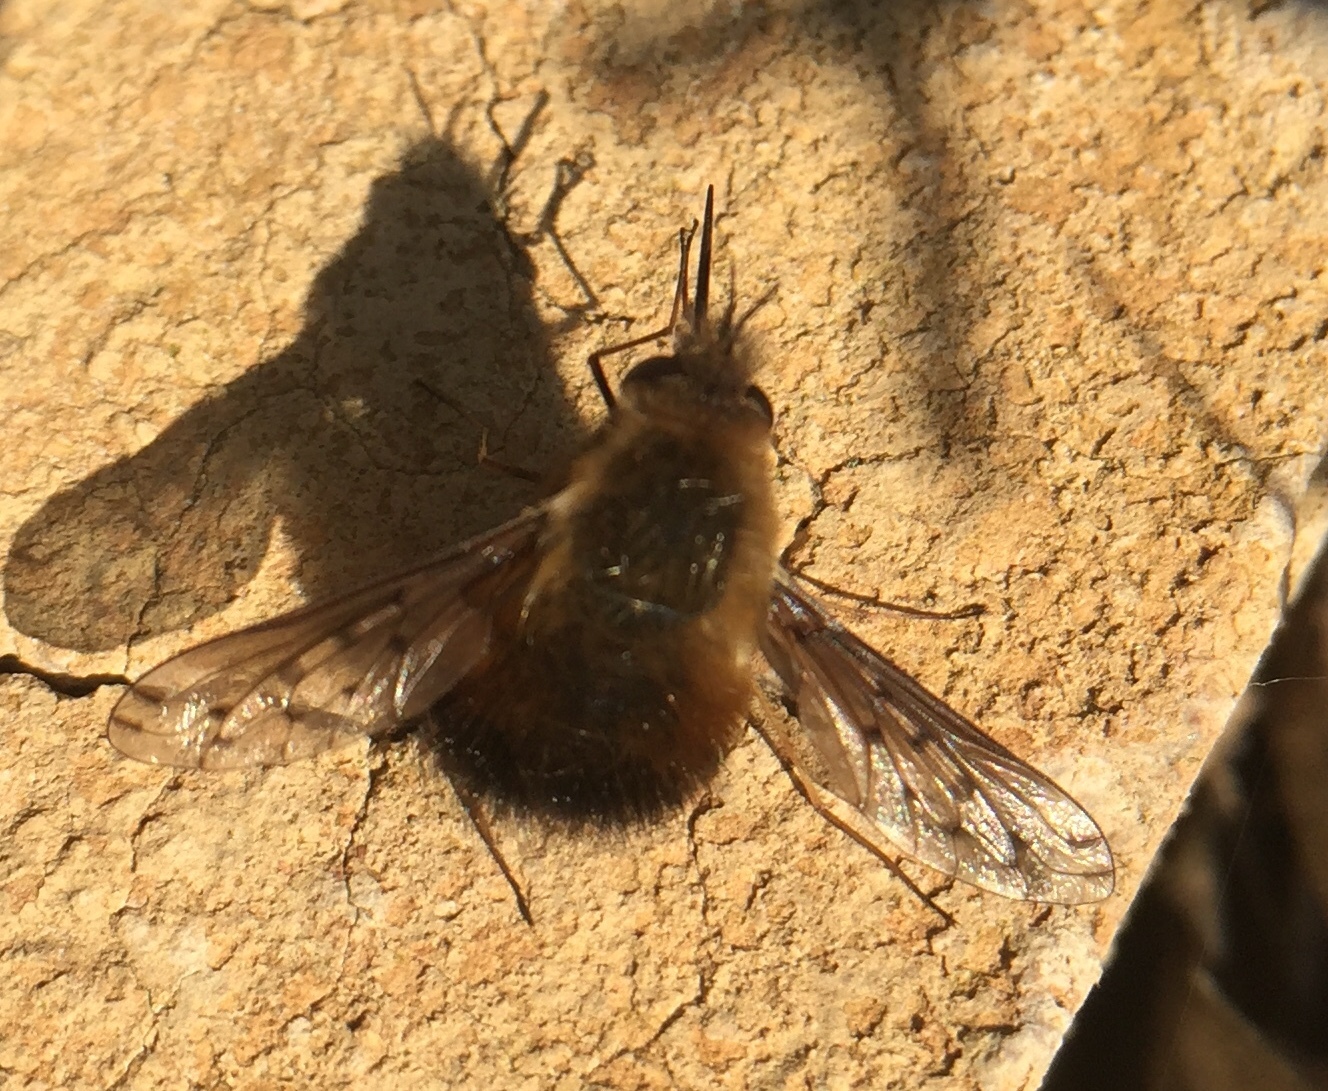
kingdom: Animalia
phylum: Arthropoda
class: Insecta
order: Diptera
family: Bombyliidae
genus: Bombylius
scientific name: Bombylius discolor
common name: Dotted bee-fly
